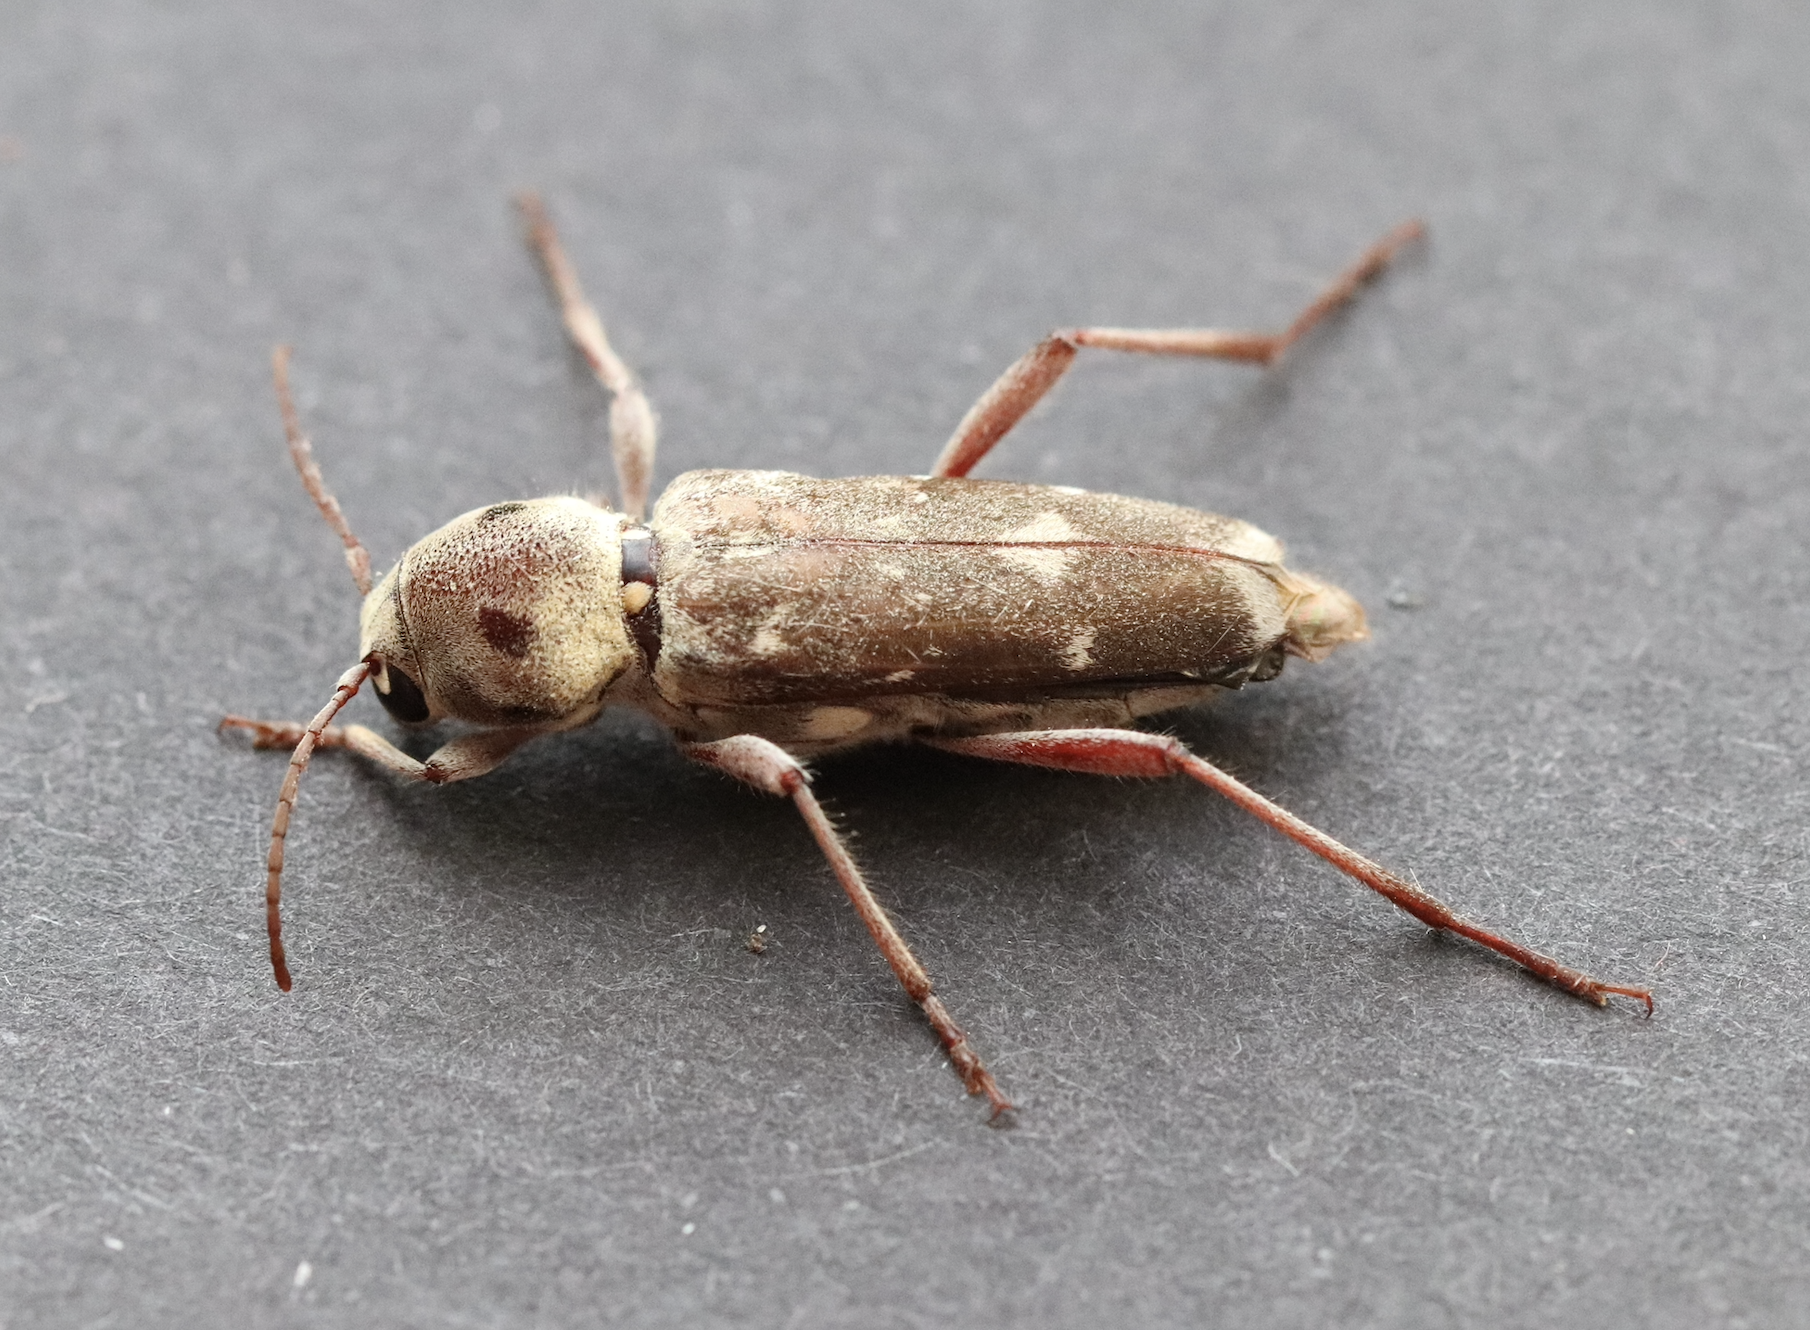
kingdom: Animalia
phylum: Arthropoda
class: Insecta
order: Coleoptera
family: Cerambycidae
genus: Xylotrechus
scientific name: Xylotrechus smei
